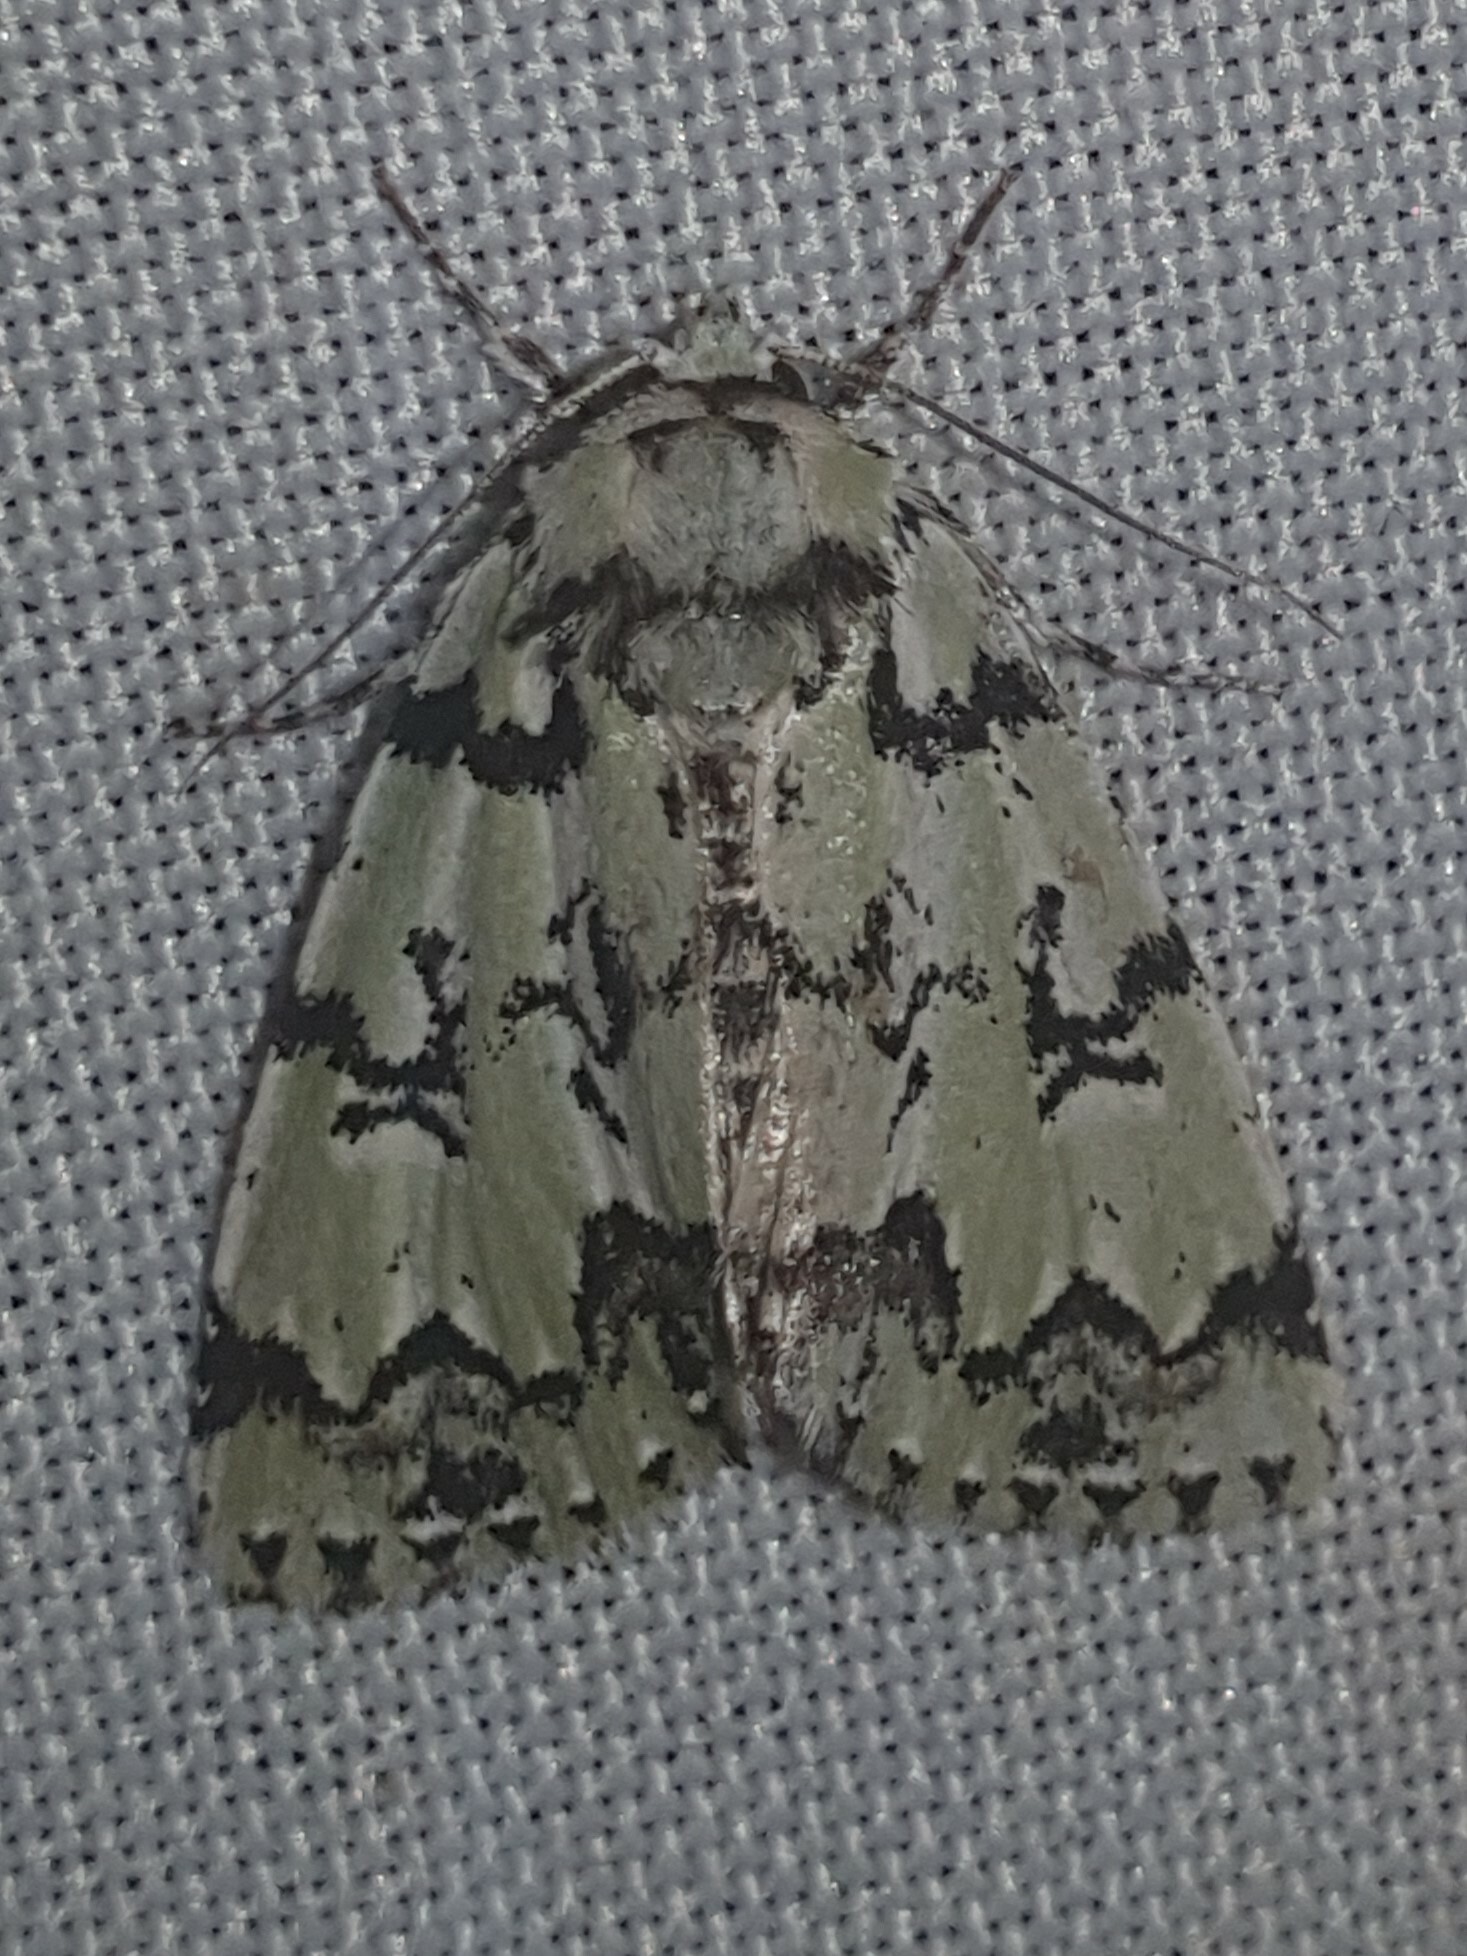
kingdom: Animalia
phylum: Arthropoda
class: Insecta
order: Lepidoptera
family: Noctuidae
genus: Moma
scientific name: Moma alpium
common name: Scarce merveille du jour
